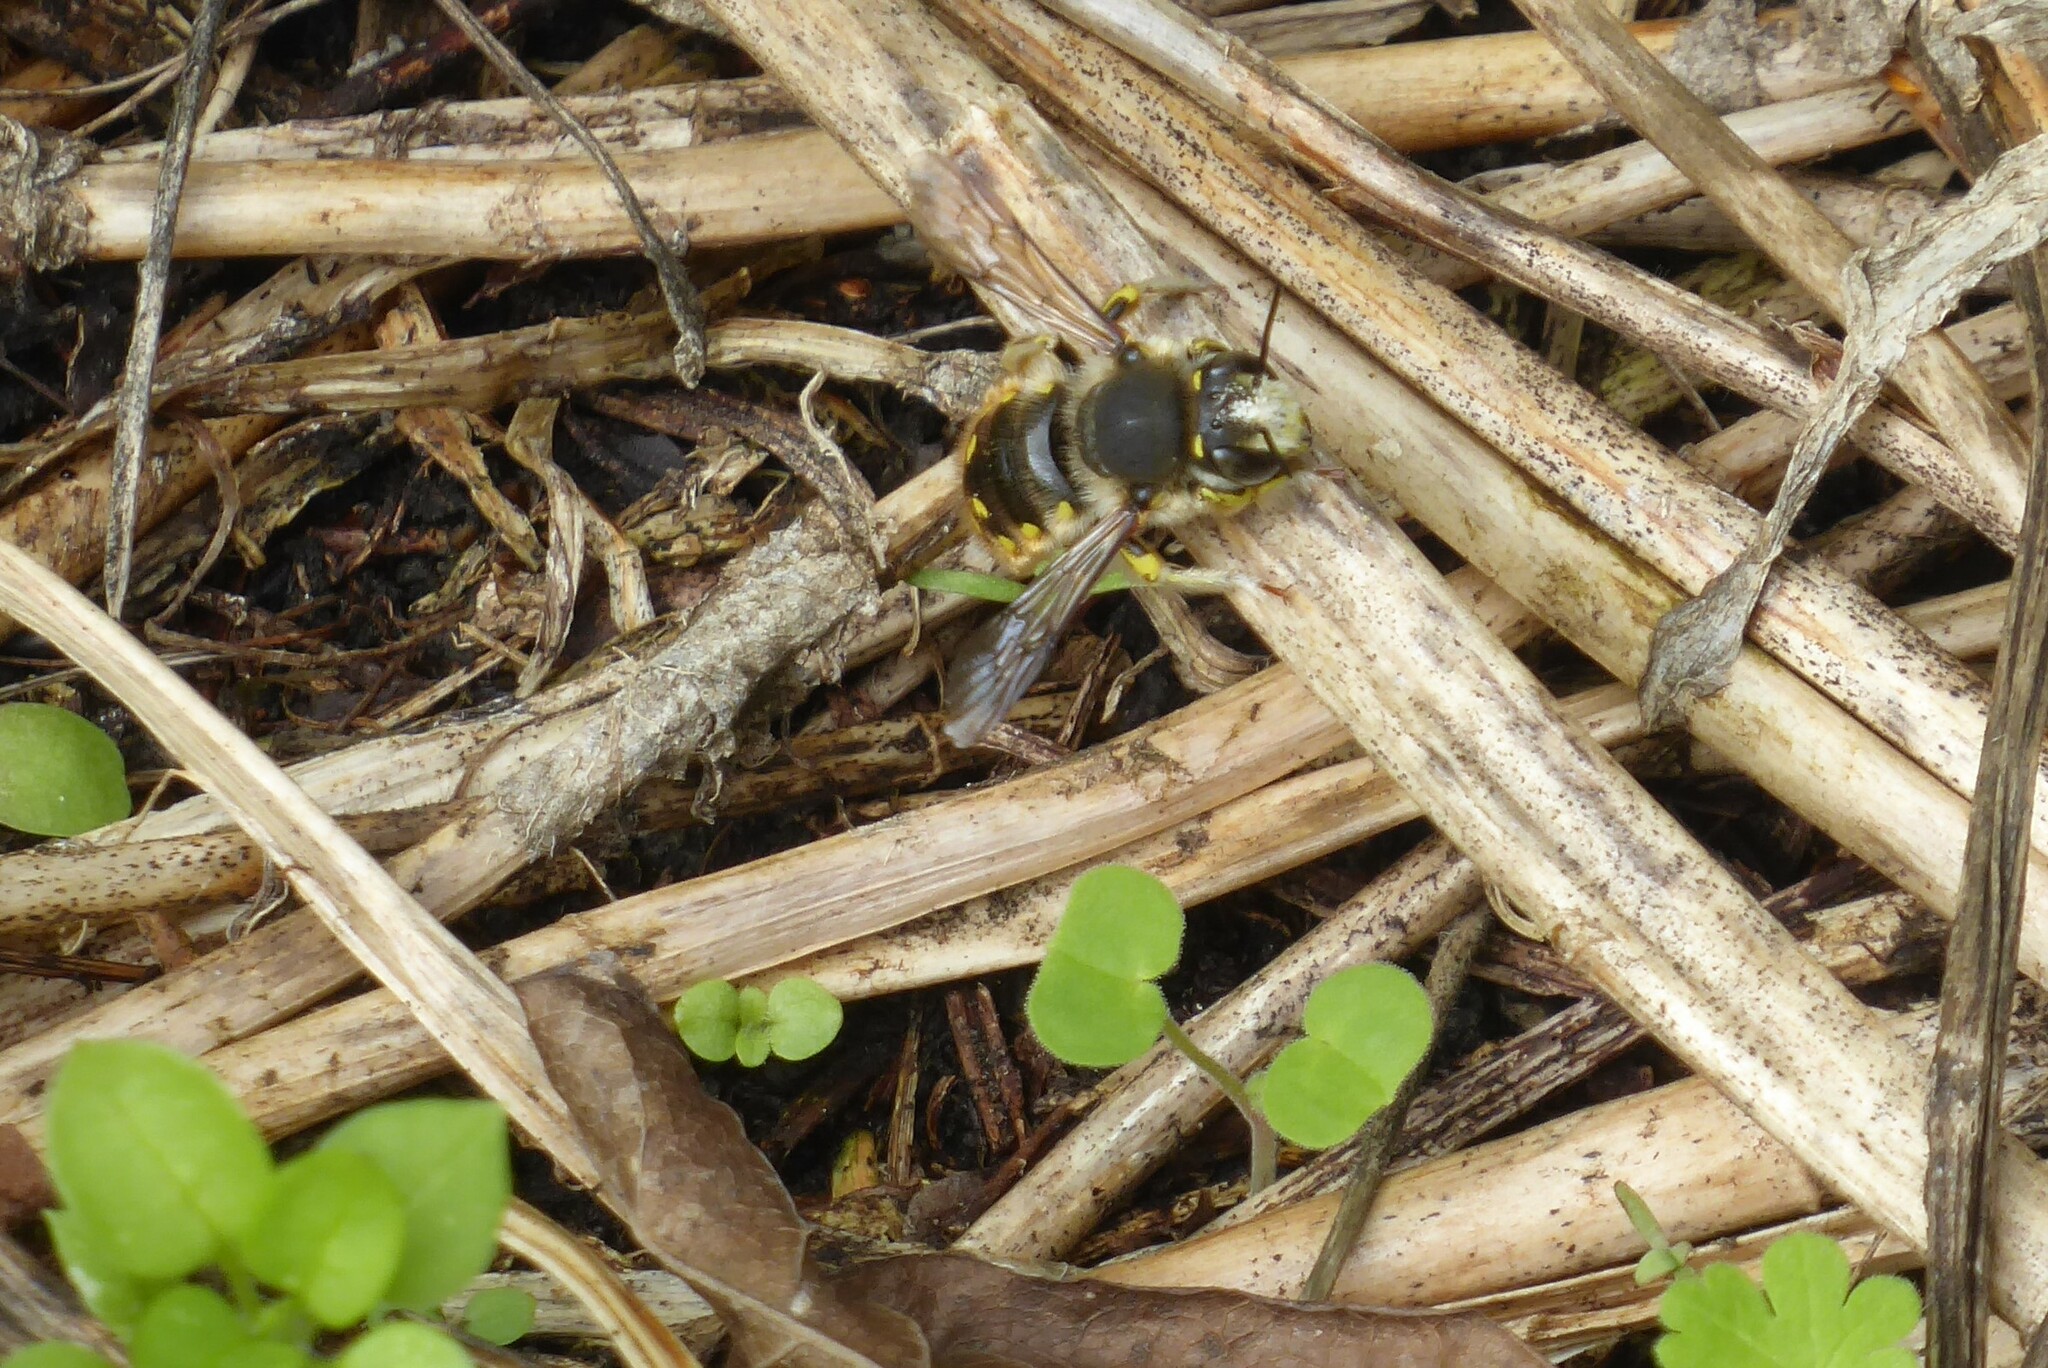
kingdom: Animalia
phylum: Arthropoda
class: Insecta
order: Hymenoptera
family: Megachilidae
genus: Anthidium
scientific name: Anthidium manicatum
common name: Wool carder bee
